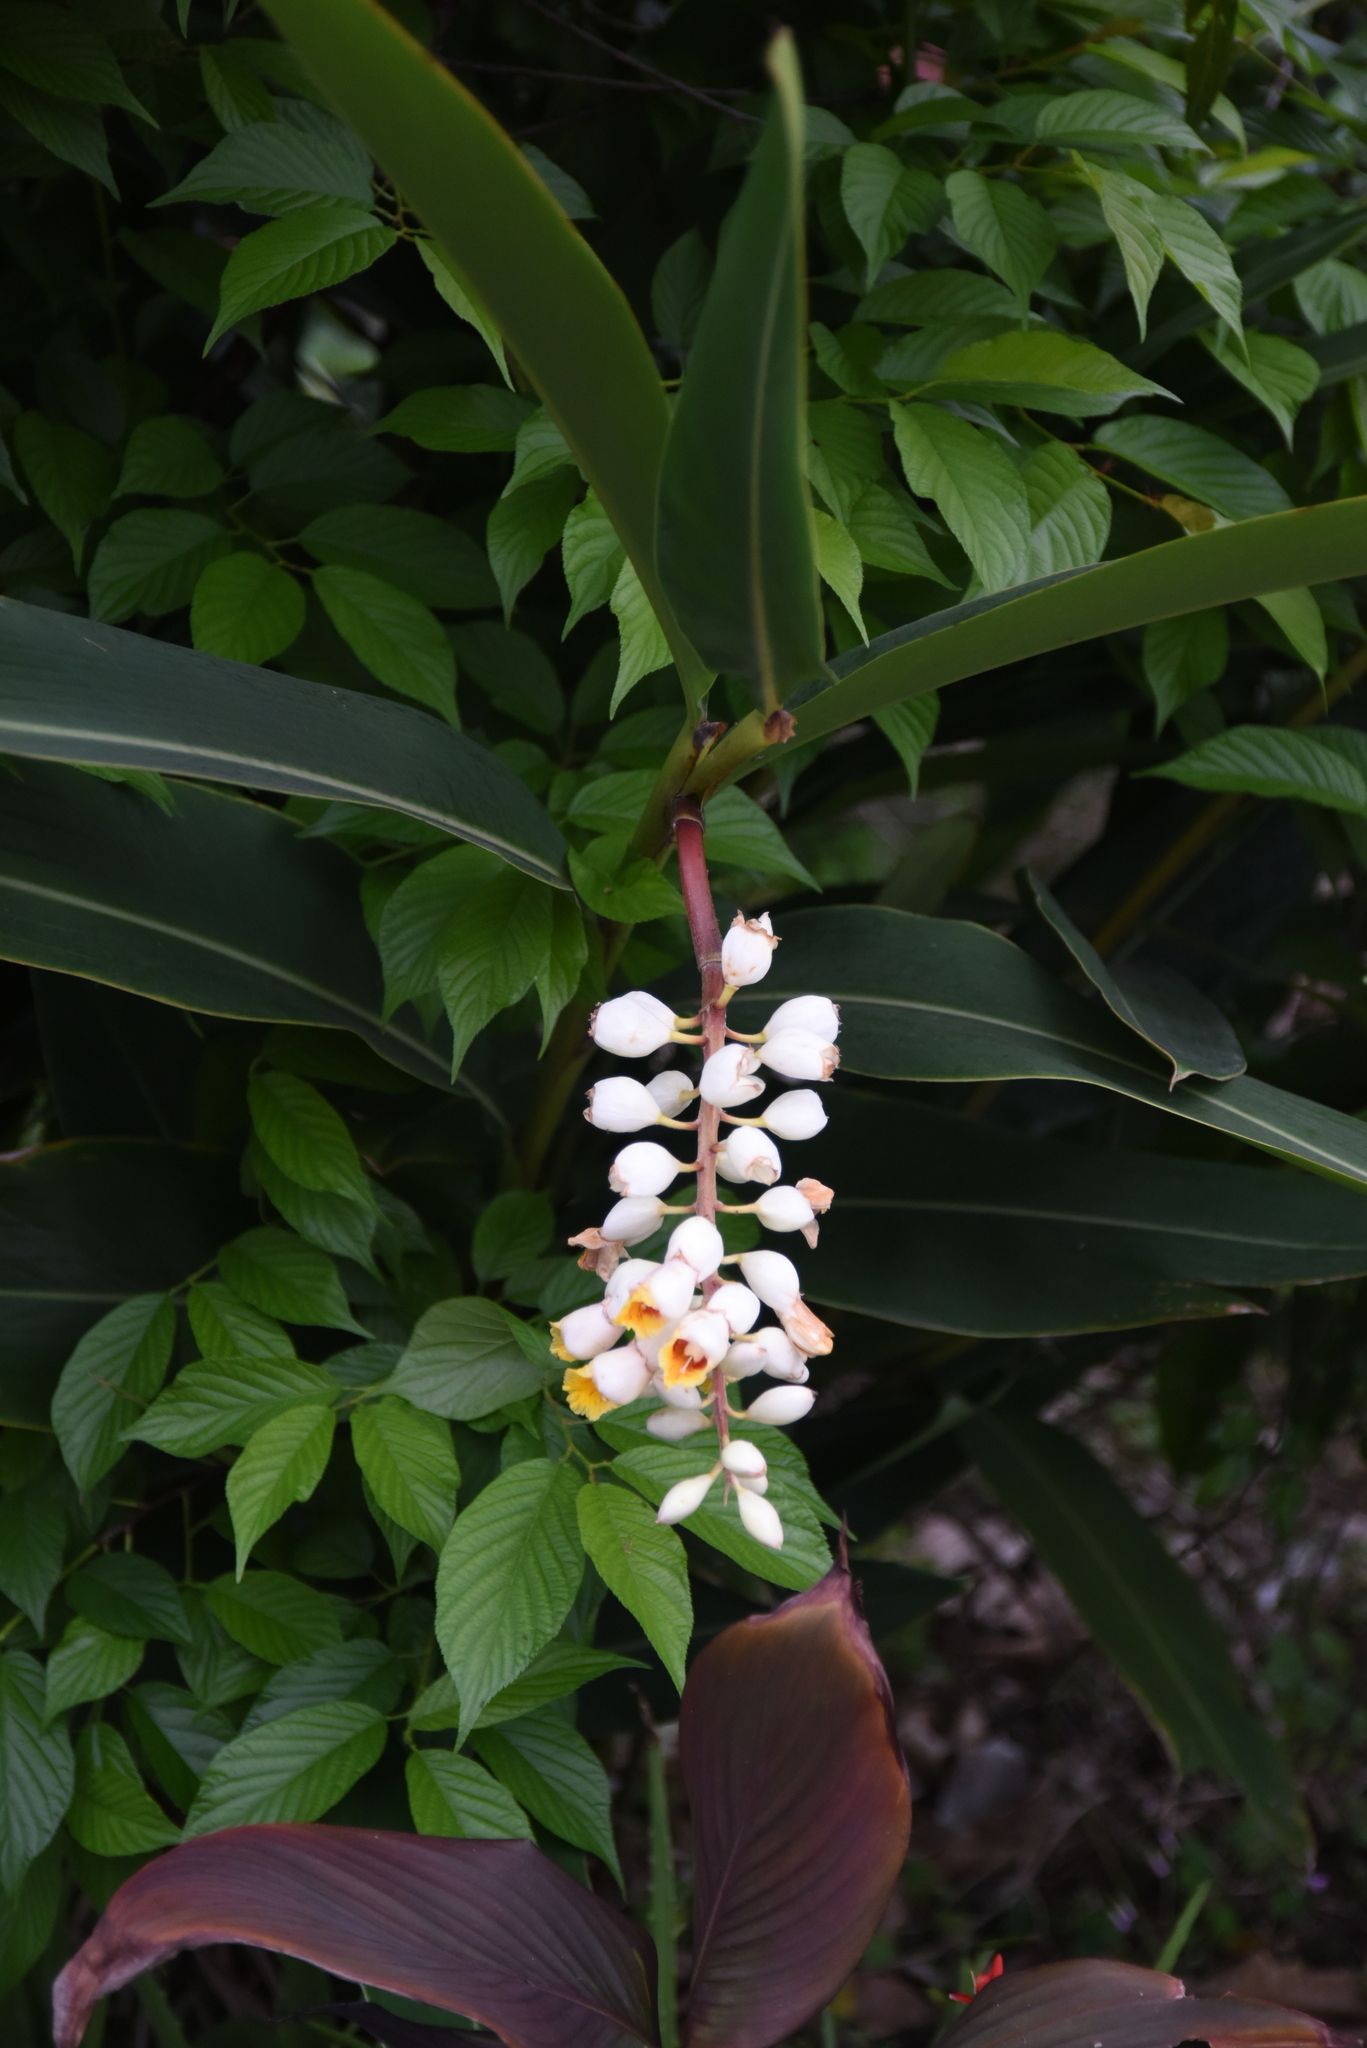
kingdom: Plantae
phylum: Tracheophyta
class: Liliopsida
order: Zingiberales
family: Zingiberaceae
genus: Alpinia
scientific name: Alpinia zerumbet
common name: Shellplant
